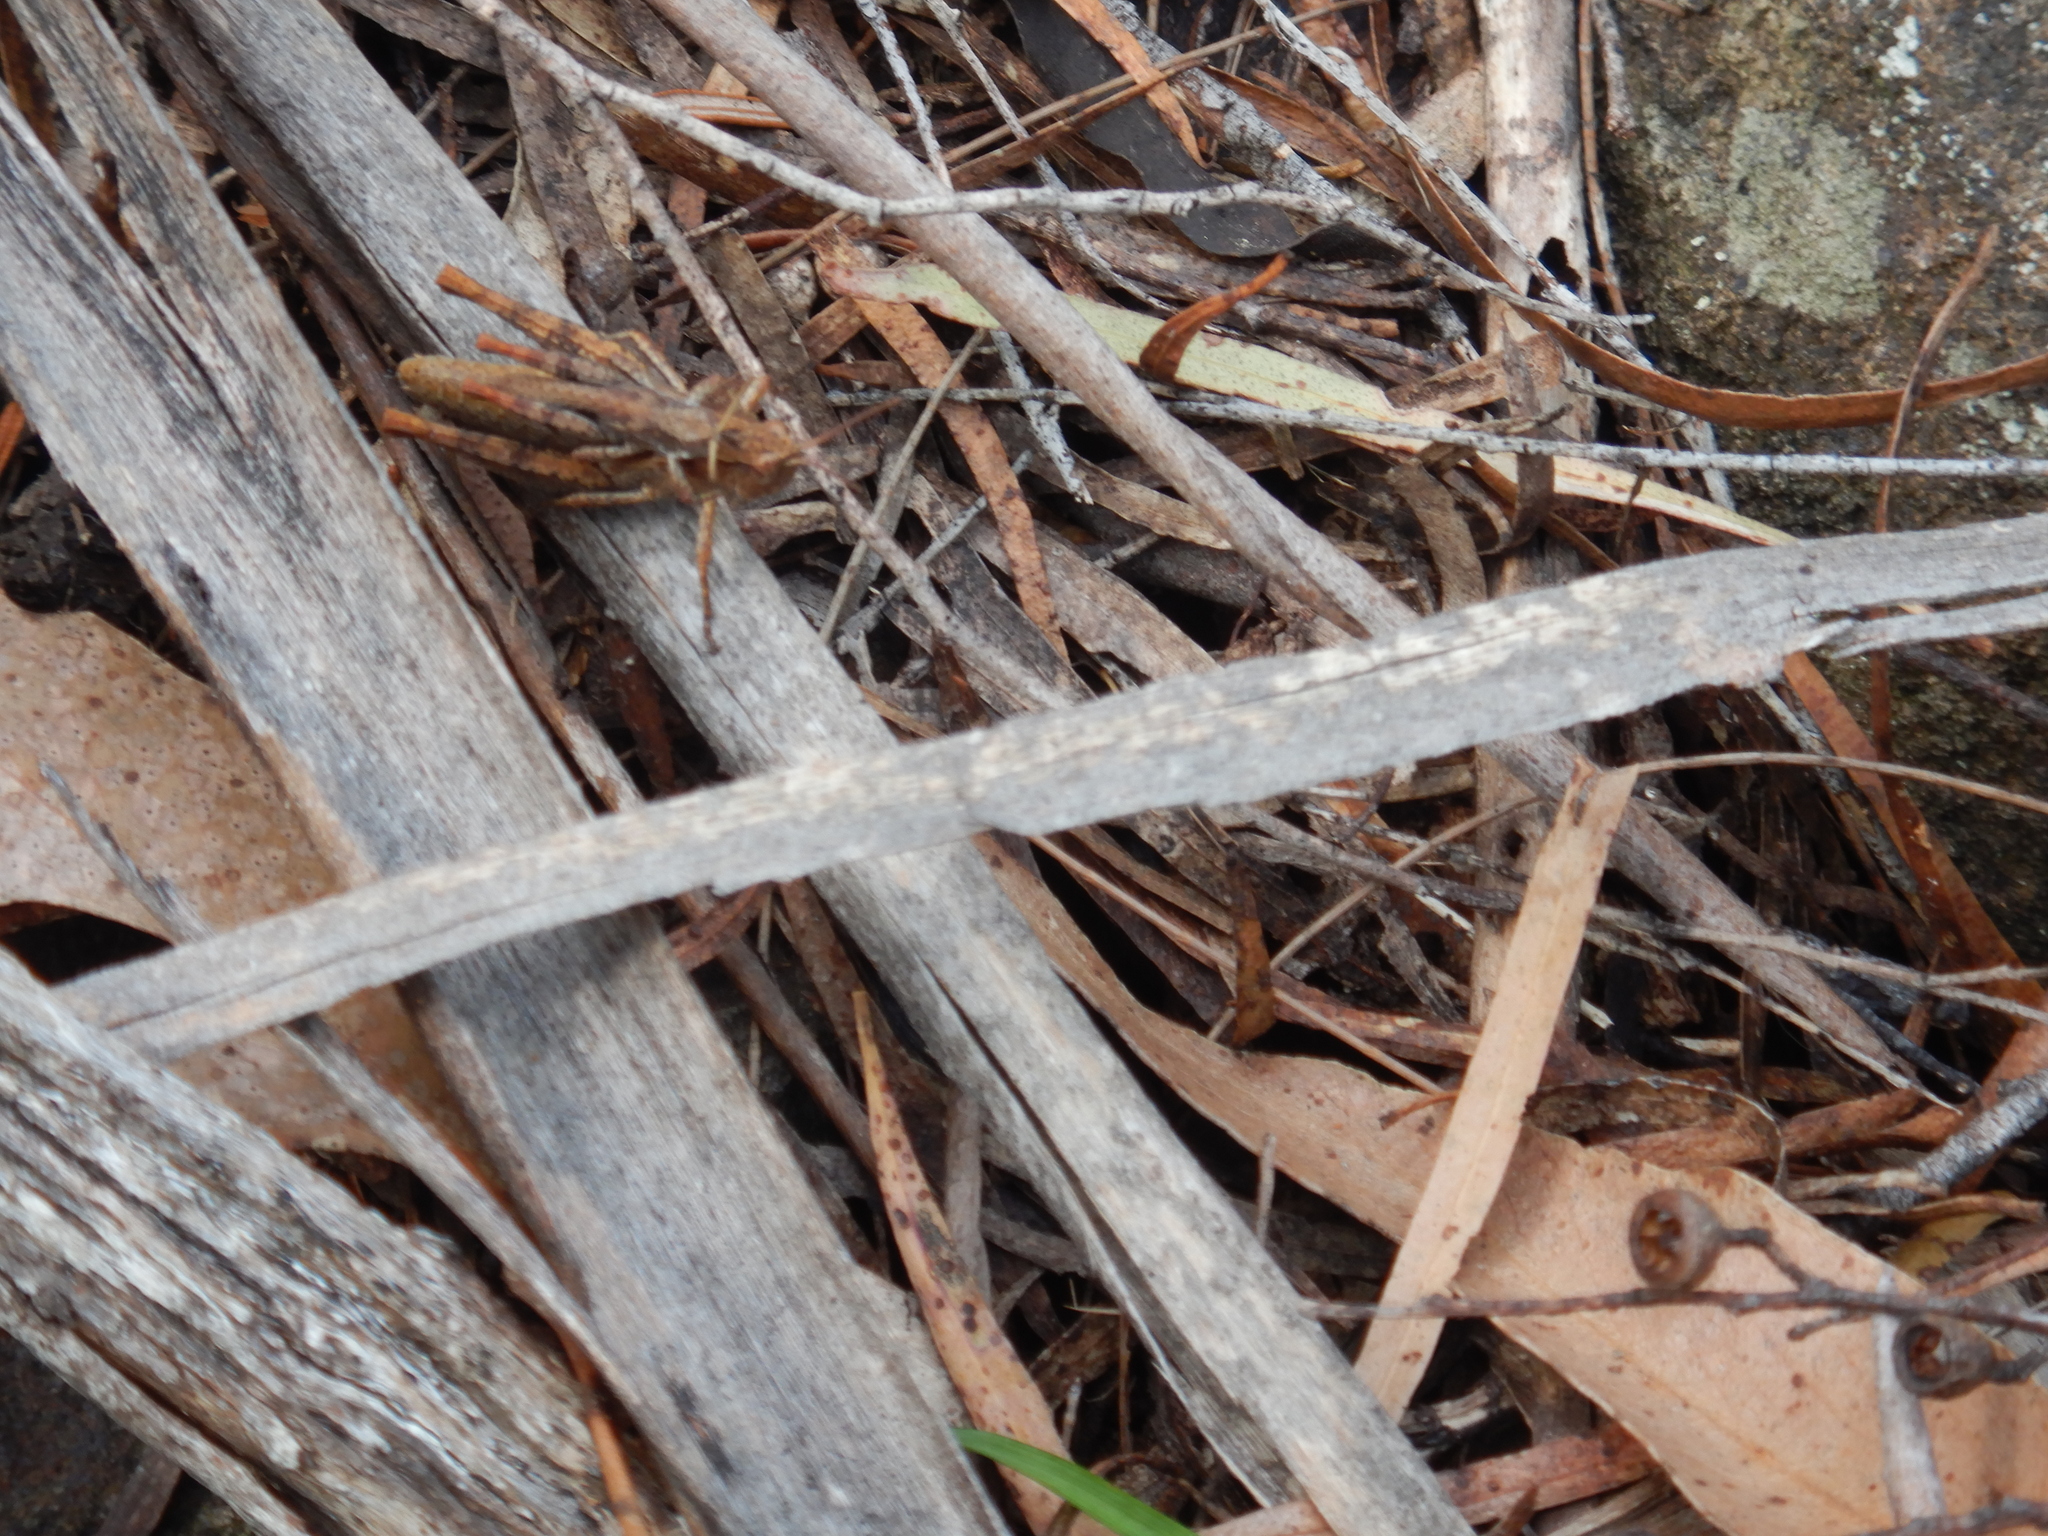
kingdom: Animalia
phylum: Arthropoda
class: Insecta
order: Orthoptera
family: Acrididae
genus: Tasmaniacris
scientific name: Tasmaniacris tasmaniensis
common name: Tasmanian grasshopper
